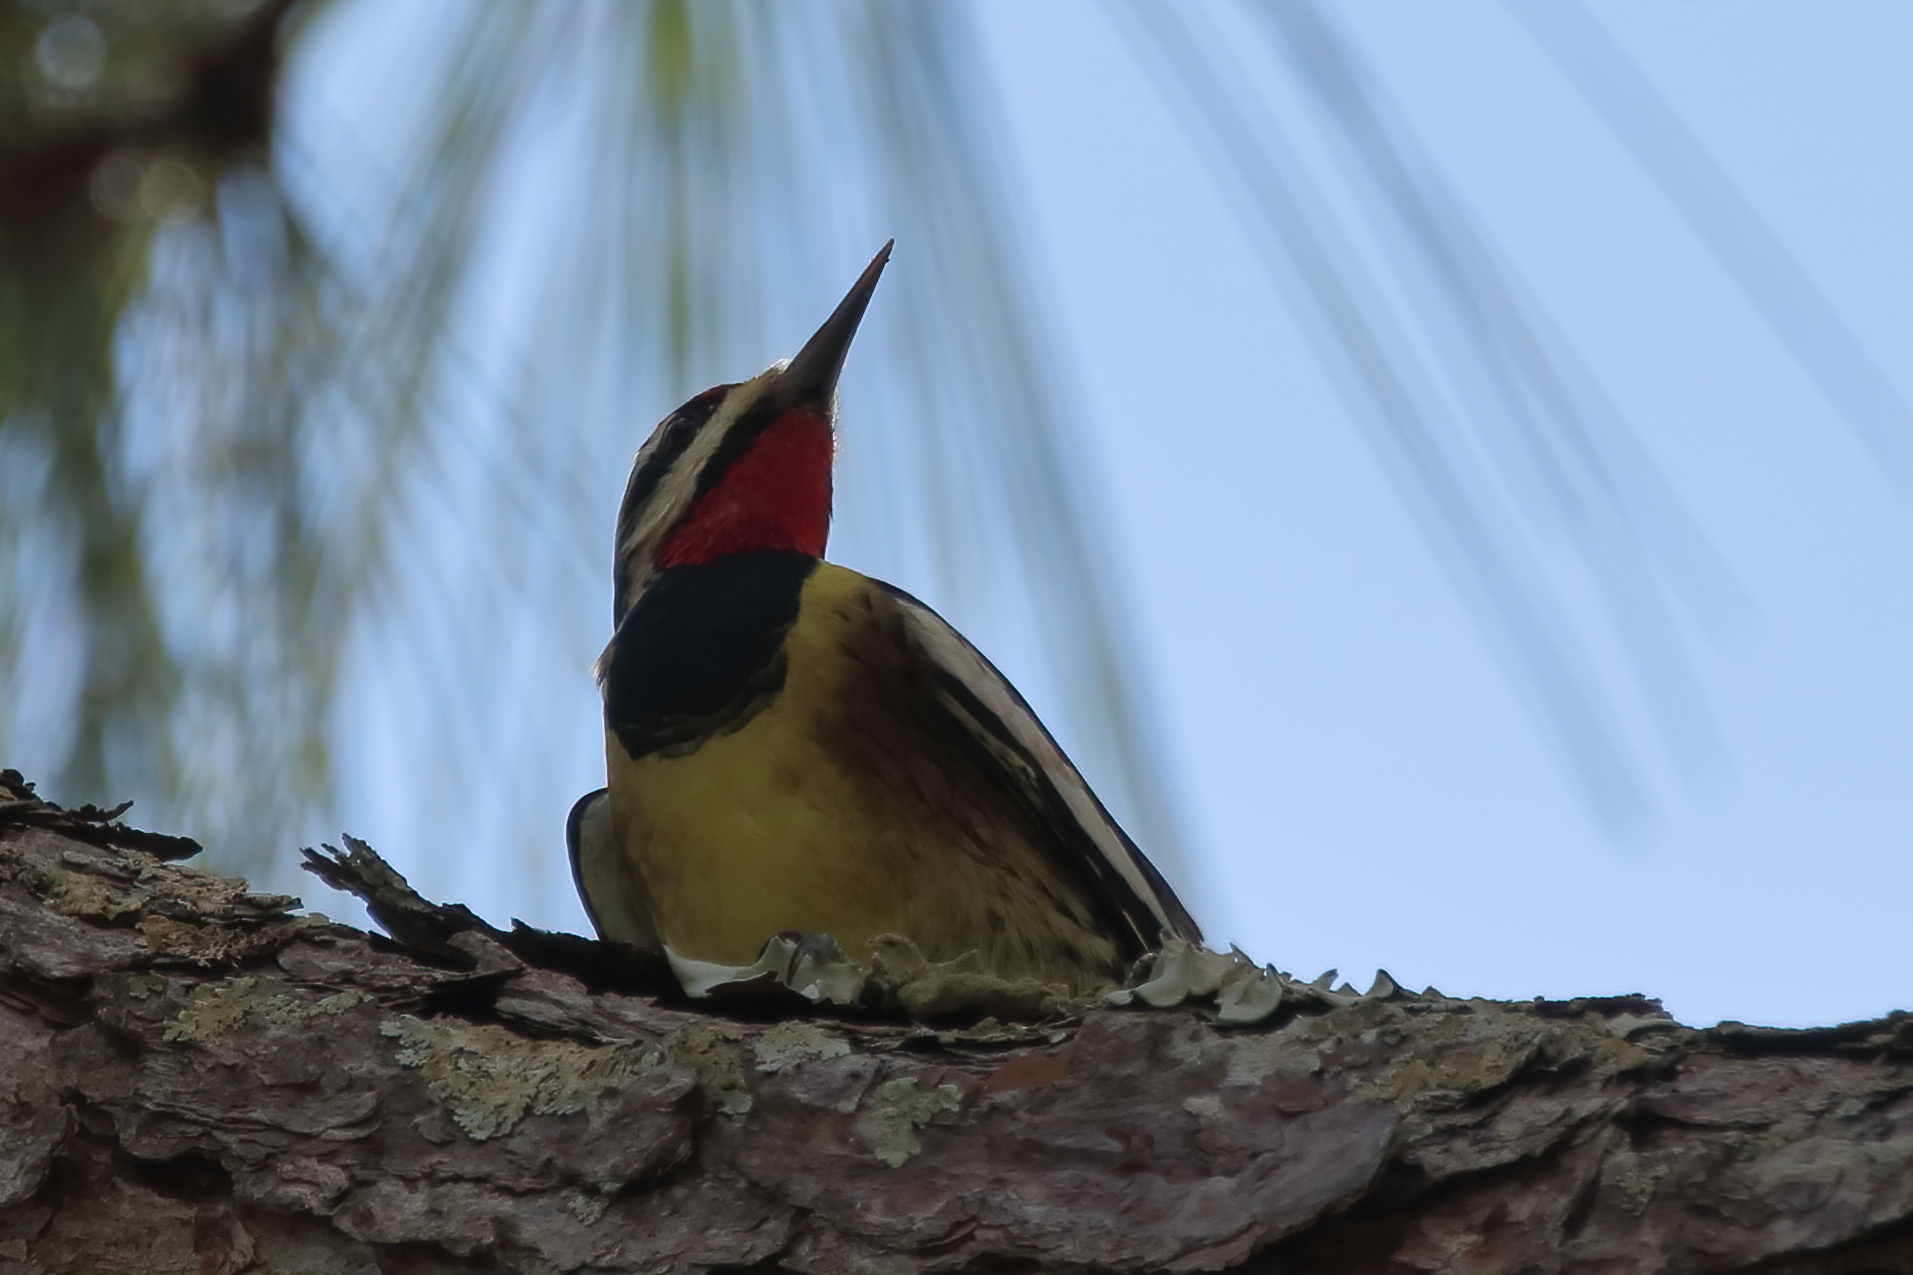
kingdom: Animalia
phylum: Chordata
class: Aves
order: Piciformes
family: Picidae
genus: Sphyrapicus
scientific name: Sphyrapicus varius
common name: Yellow-bellied sapsucker
